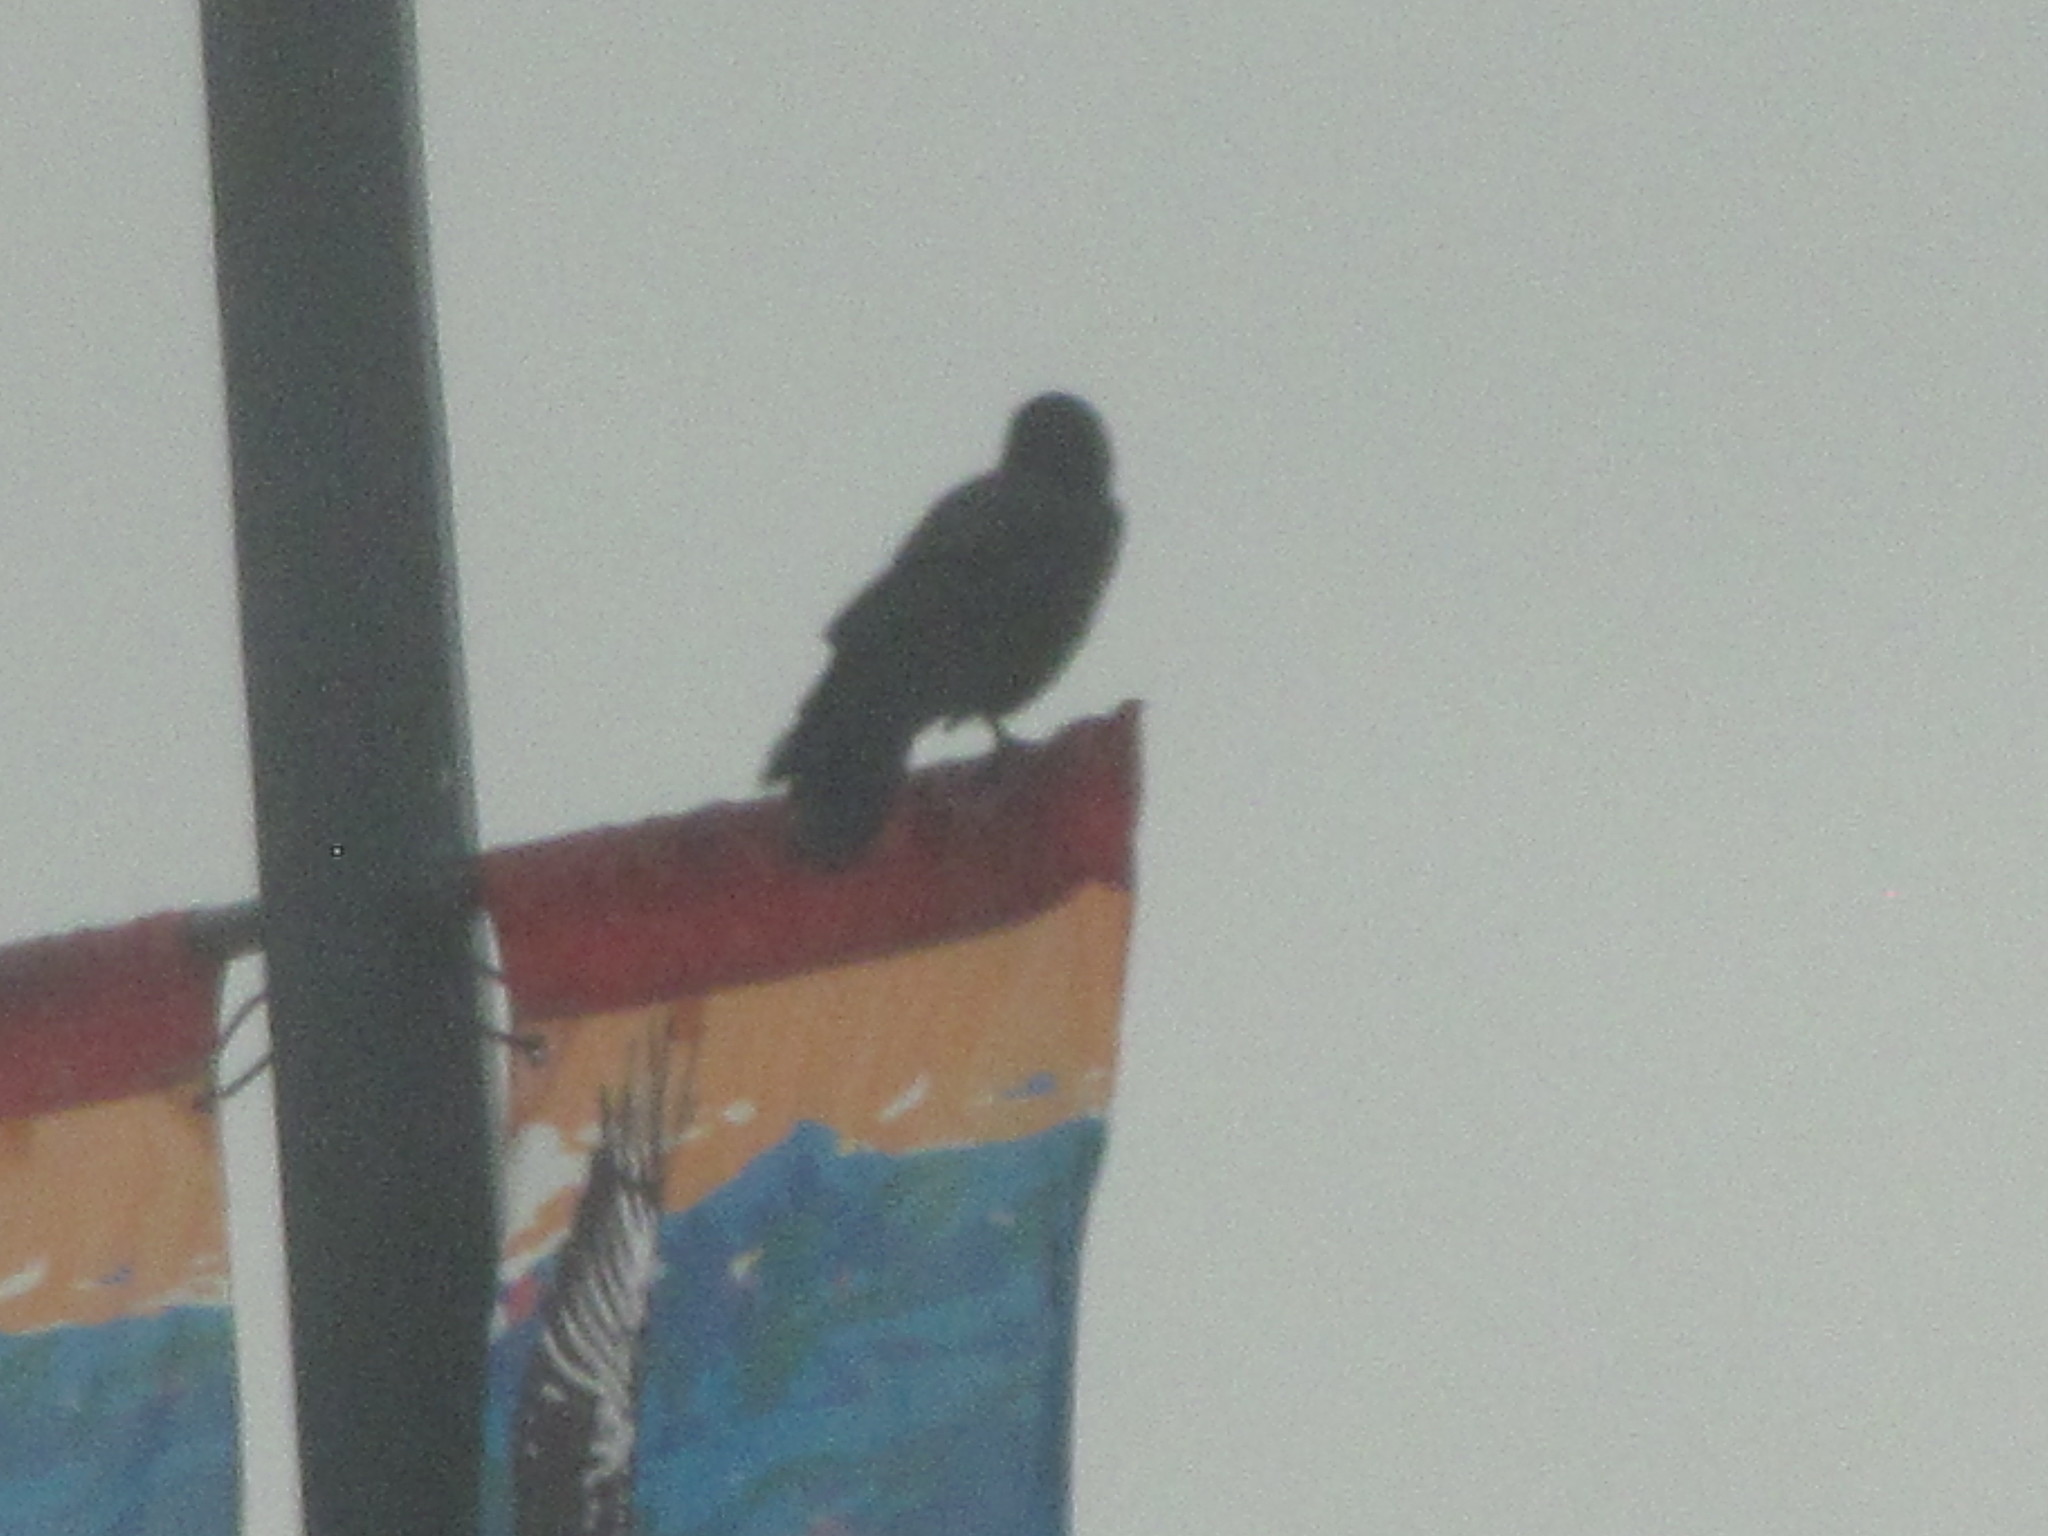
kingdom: Animalia
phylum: Chordata
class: Aves
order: Passeriformes
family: Corvidae
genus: Corvus
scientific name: Corvus brachyrhynchos
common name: American crow
